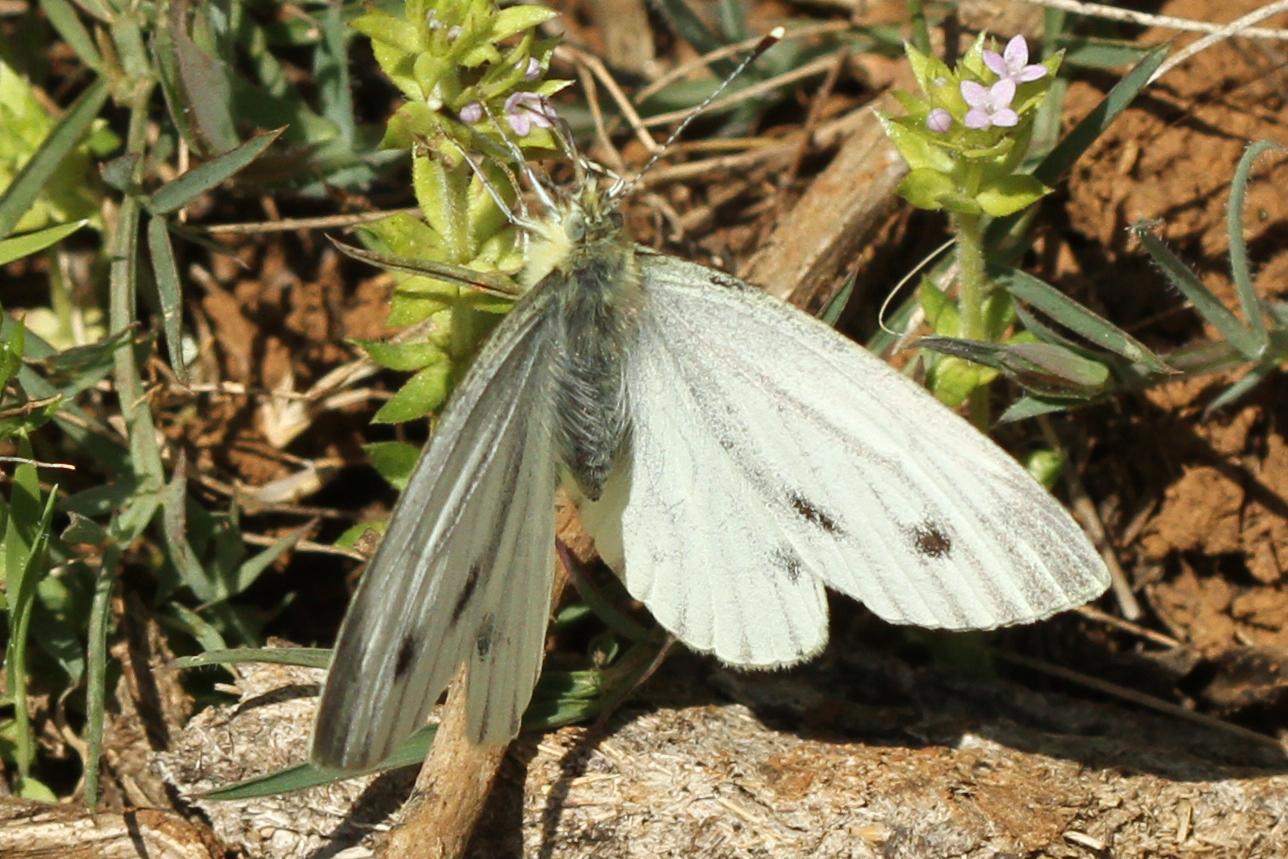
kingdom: Animalia
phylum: Arthropoda
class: Insecta
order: Lepidoptera
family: Pieridae
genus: Pieris
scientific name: Pieris napi
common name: Green-veined white
